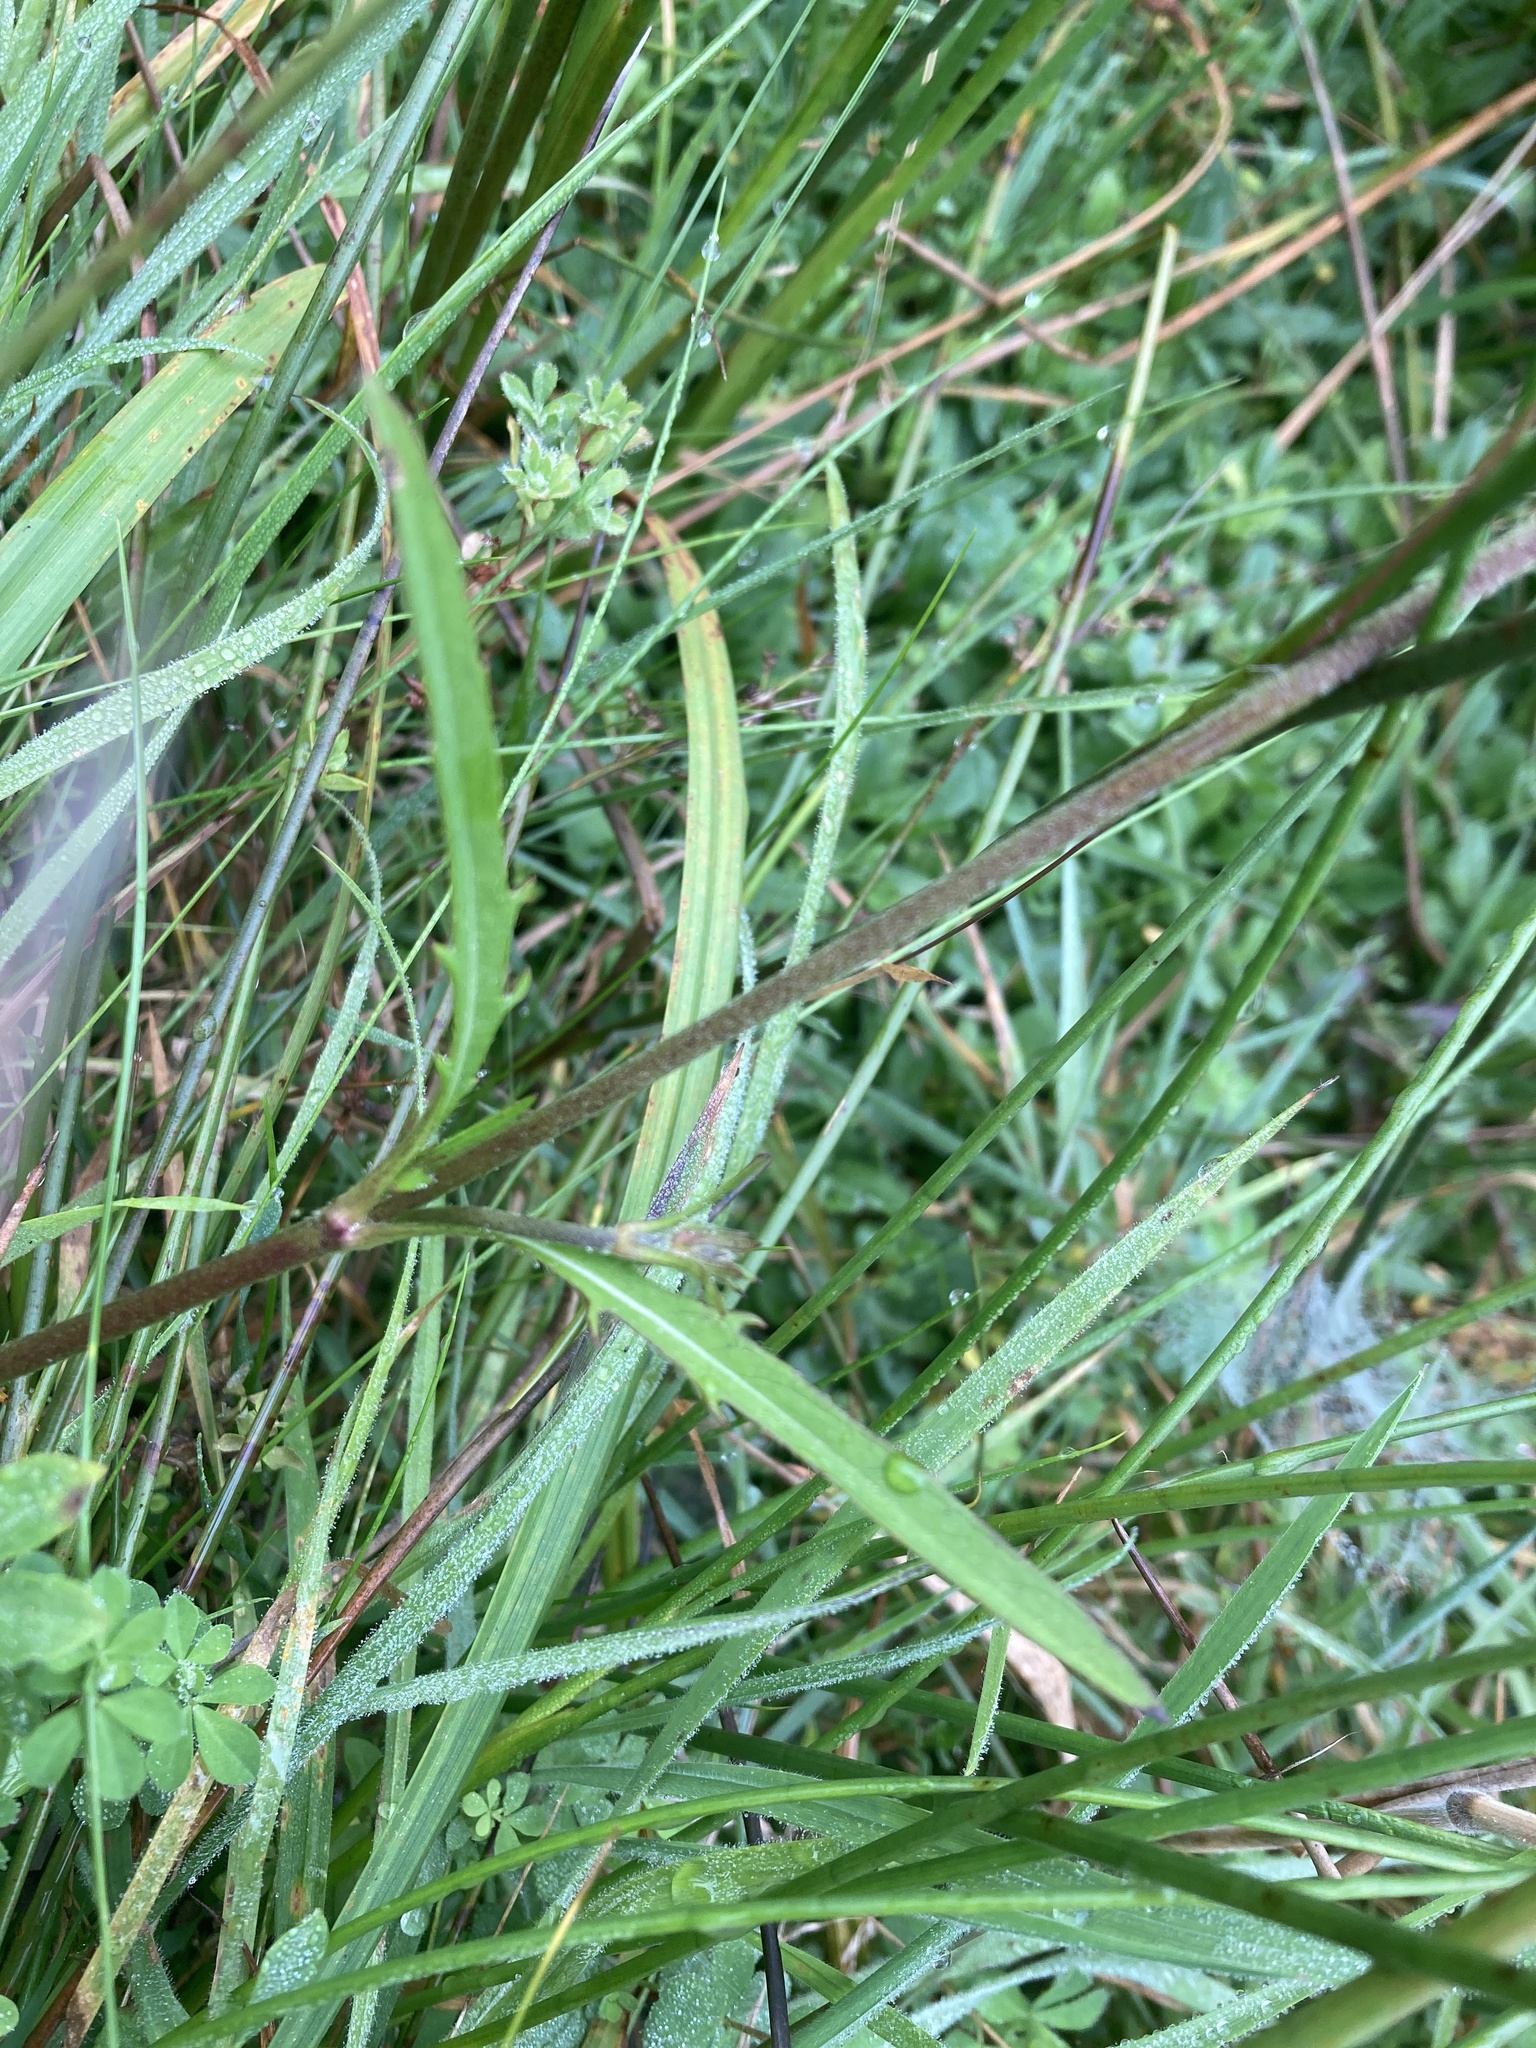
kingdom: Plantae
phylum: Tracheophyta
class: Magnoliopsida
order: Dipsacales
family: Caprifoliaceae
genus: Succisa
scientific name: Succisa pratensis
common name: Devil's-bit
